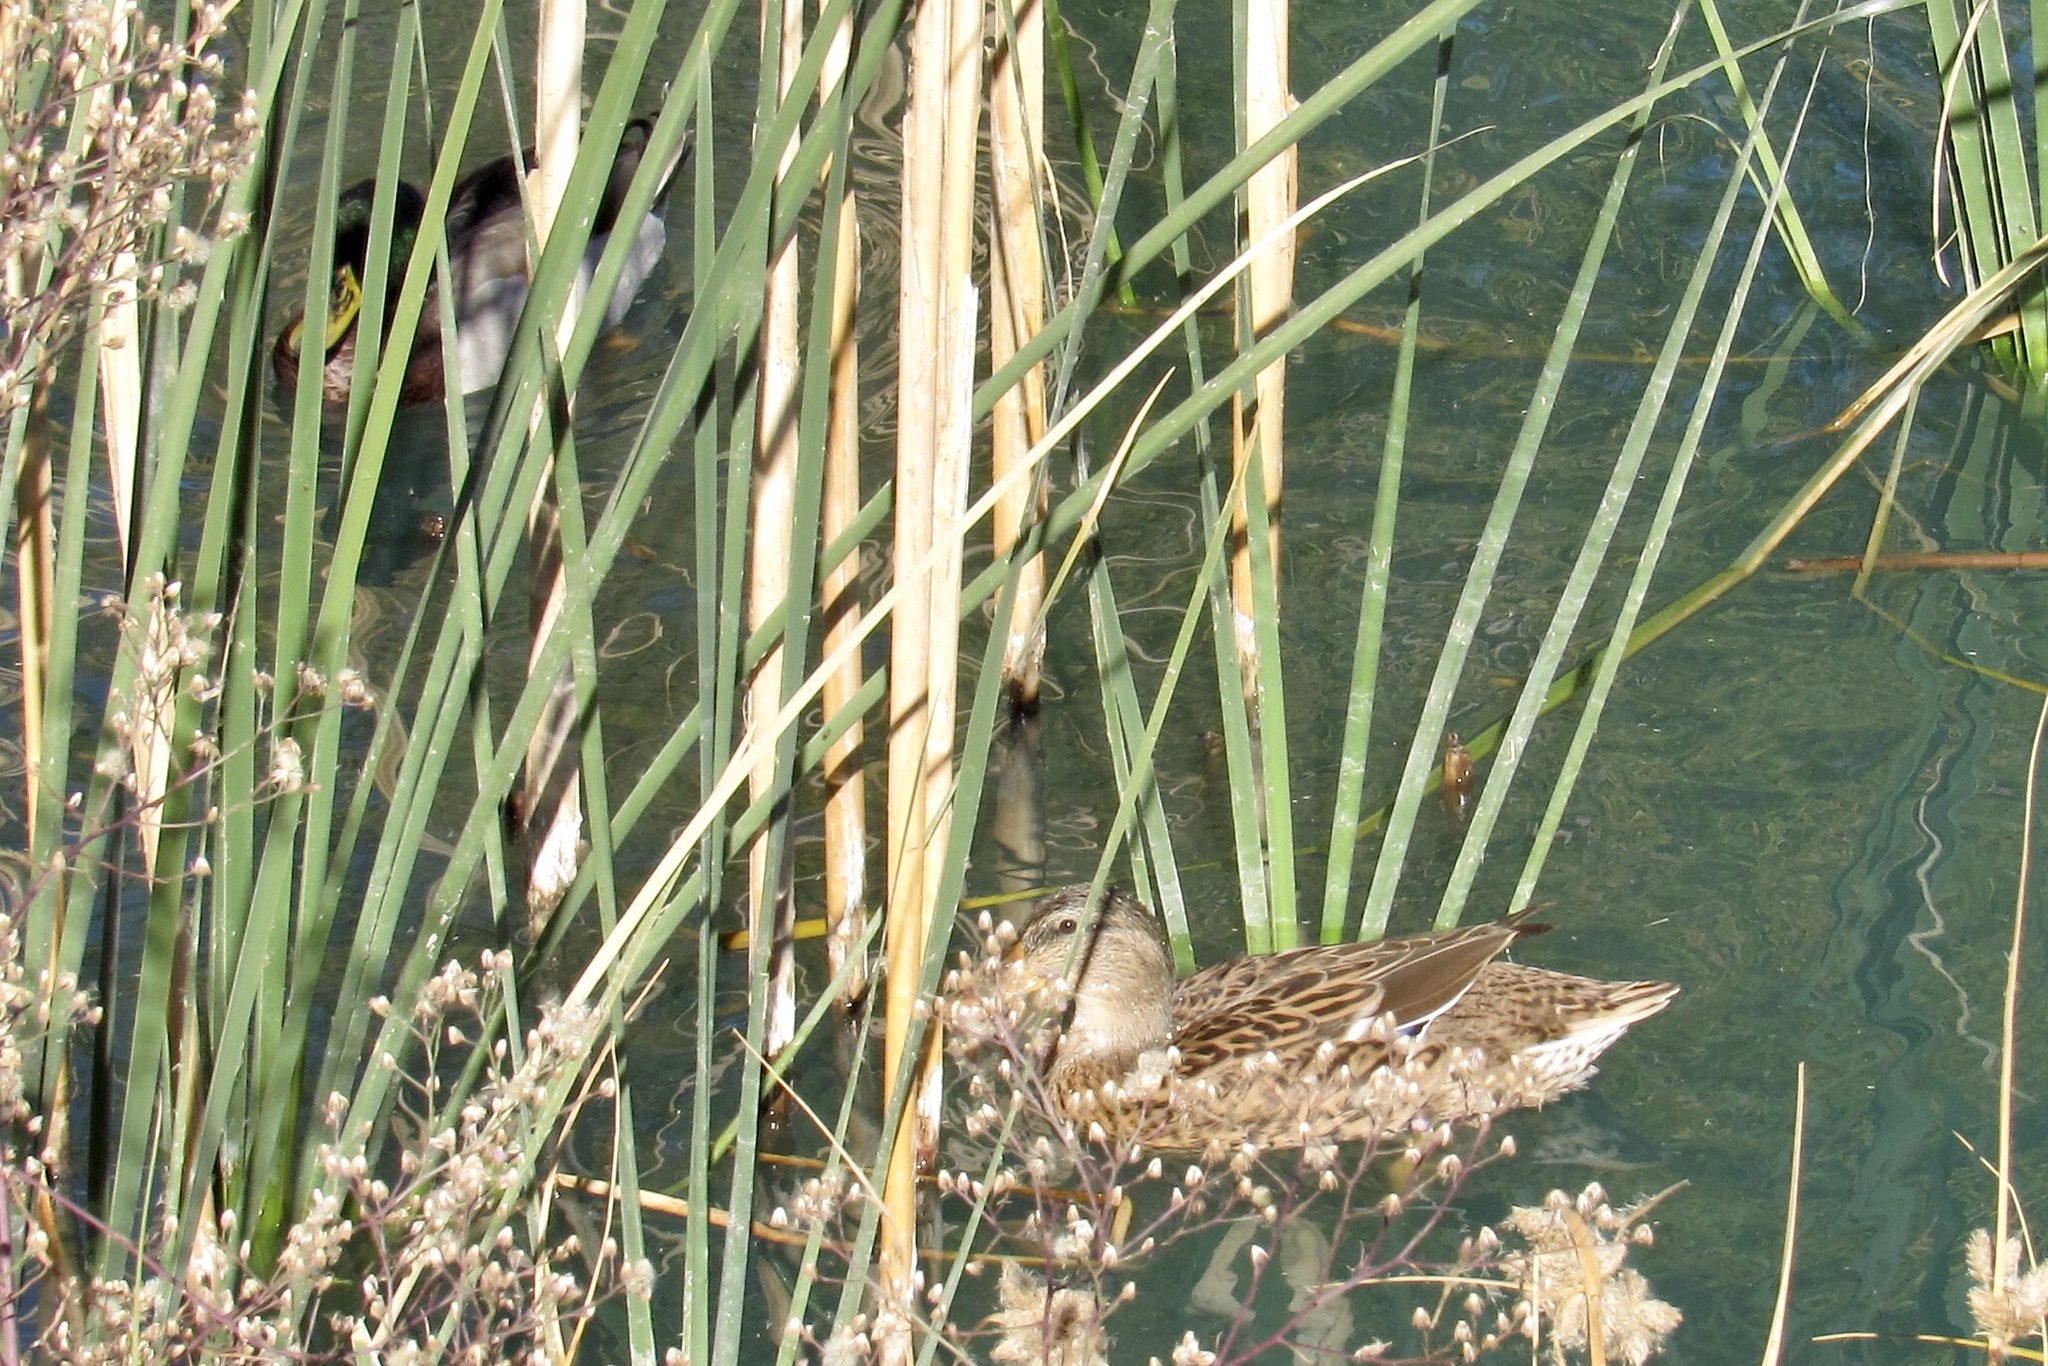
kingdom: Animalia
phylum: Chordata
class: Aves
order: Anseriformes
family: Anatidae
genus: Anas
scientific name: Anas platyrhynchos
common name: Mallard
